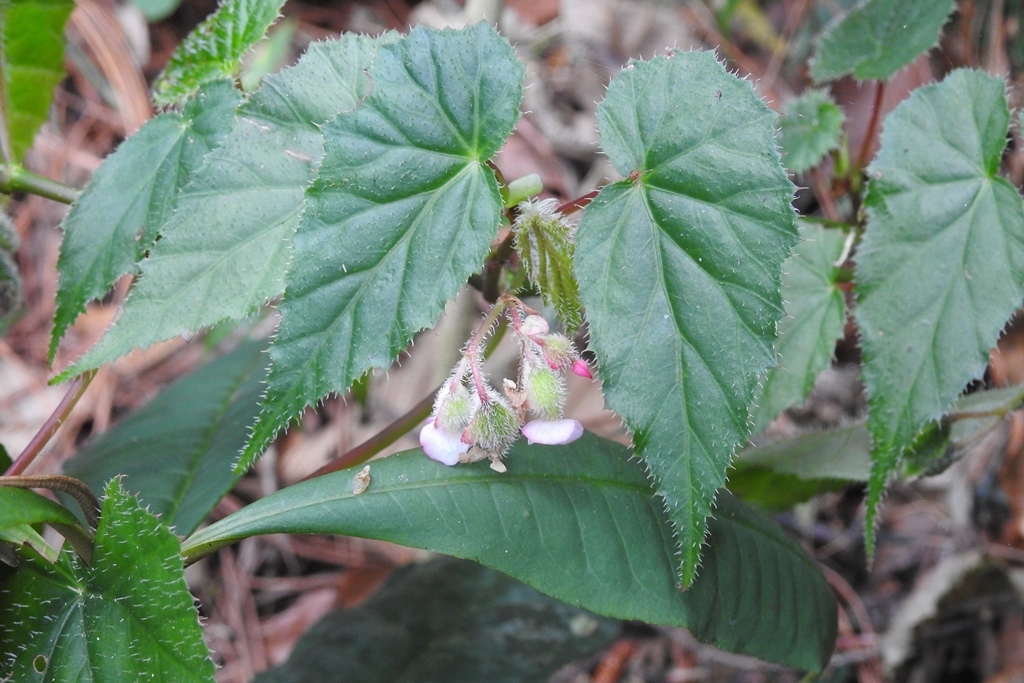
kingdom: Plantae
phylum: Tracheophyta
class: Magnoliopsida
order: Cucurbitales
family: Begoniaceae
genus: Begonia
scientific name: Begonia oaxacana
